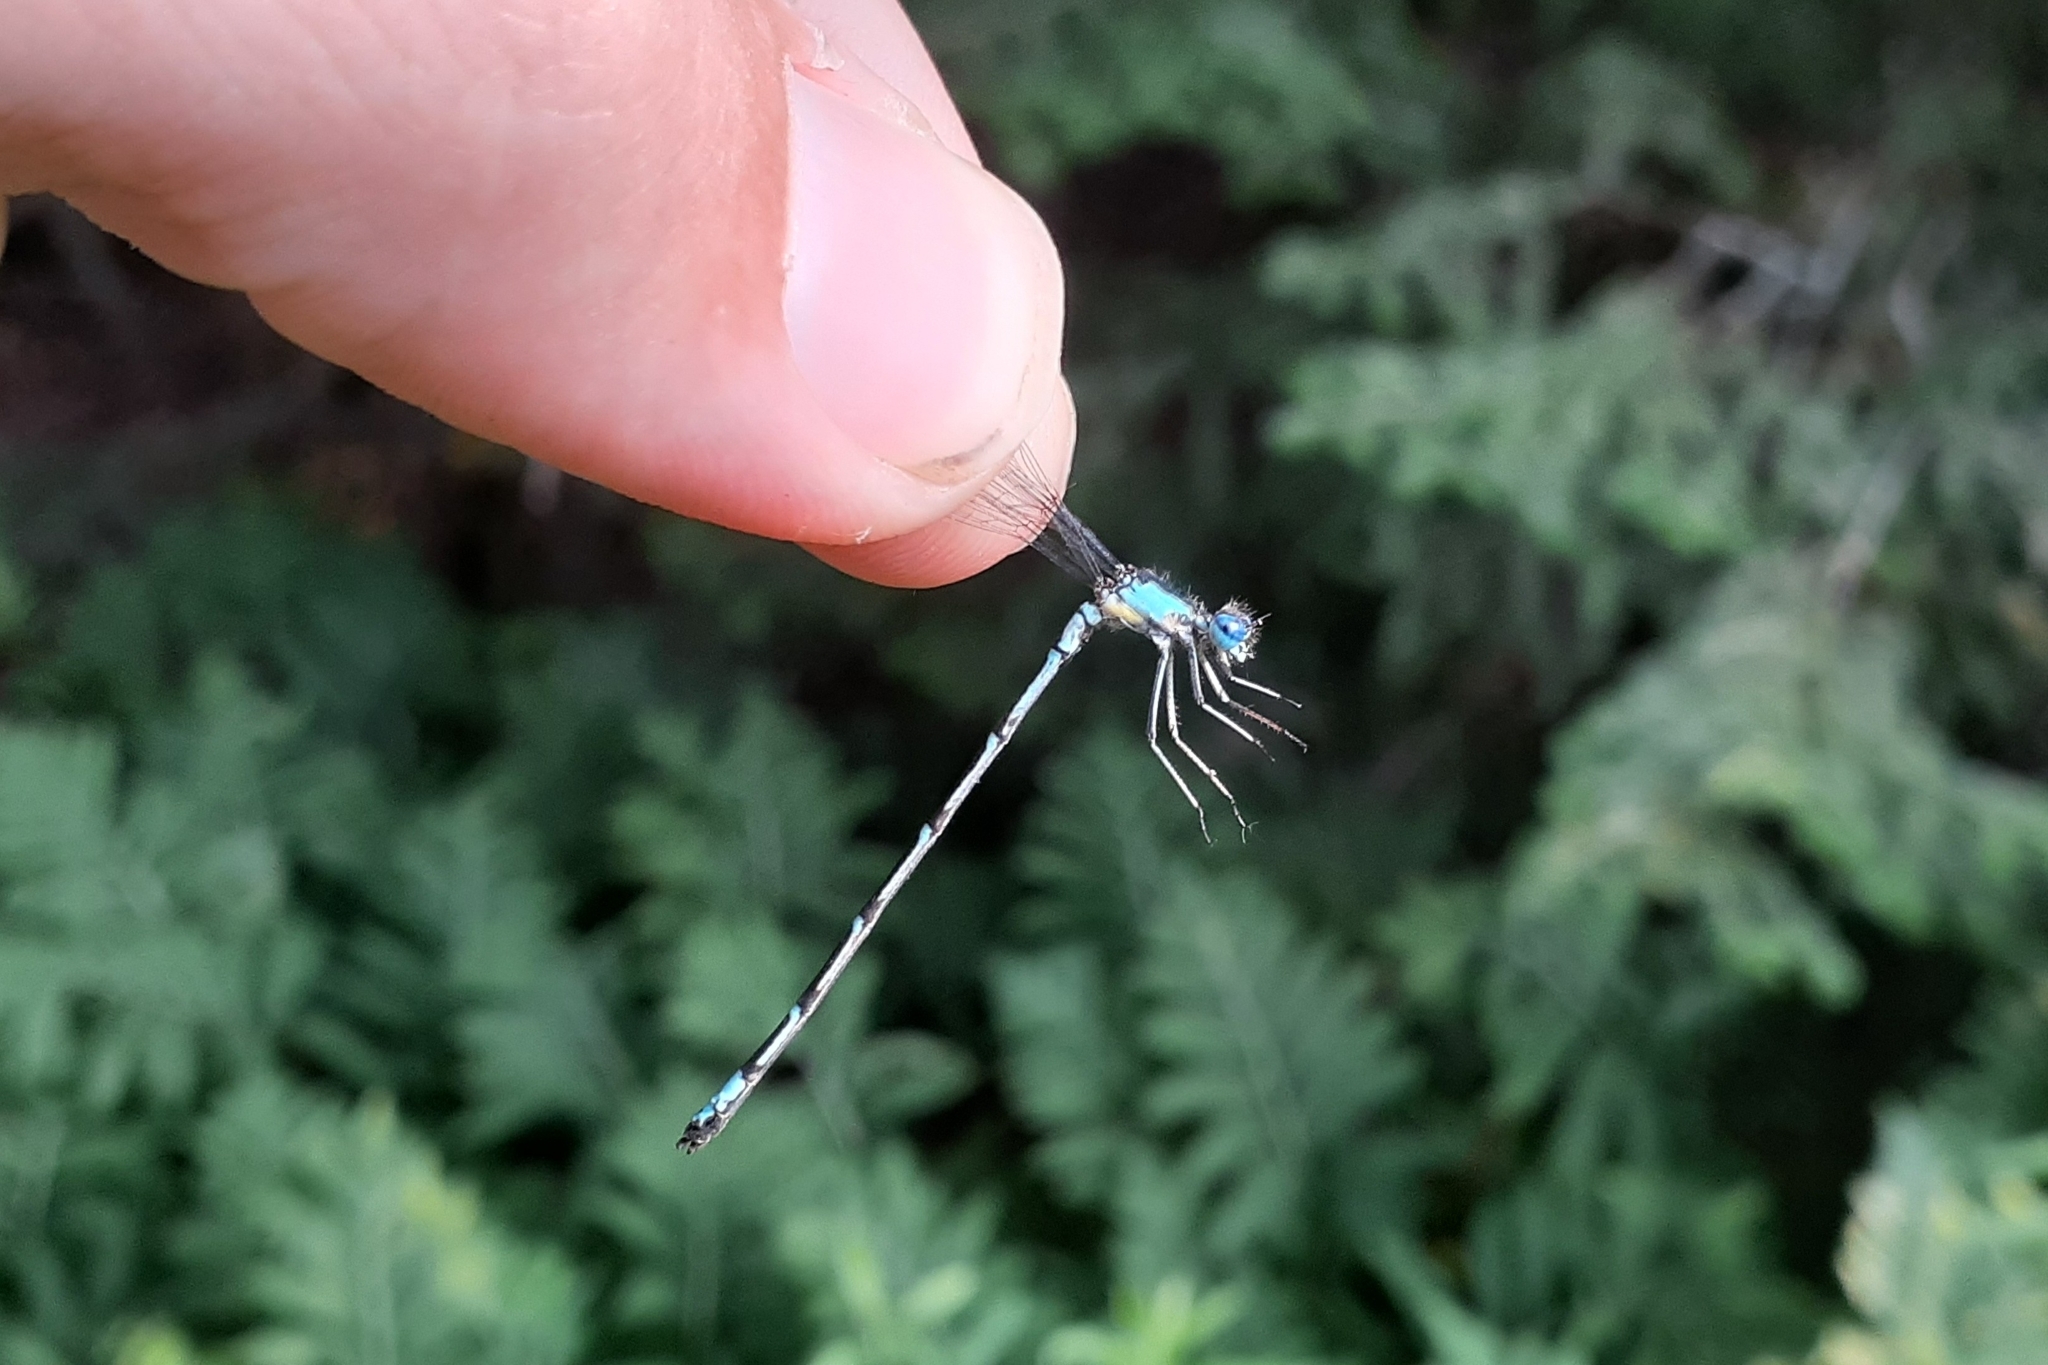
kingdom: Animalia
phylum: Arthropoda
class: Insecta
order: Odonata
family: Coenagrionidae
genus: Chromagrion
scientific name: Chromagrion conditum
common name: Aurora damsel
